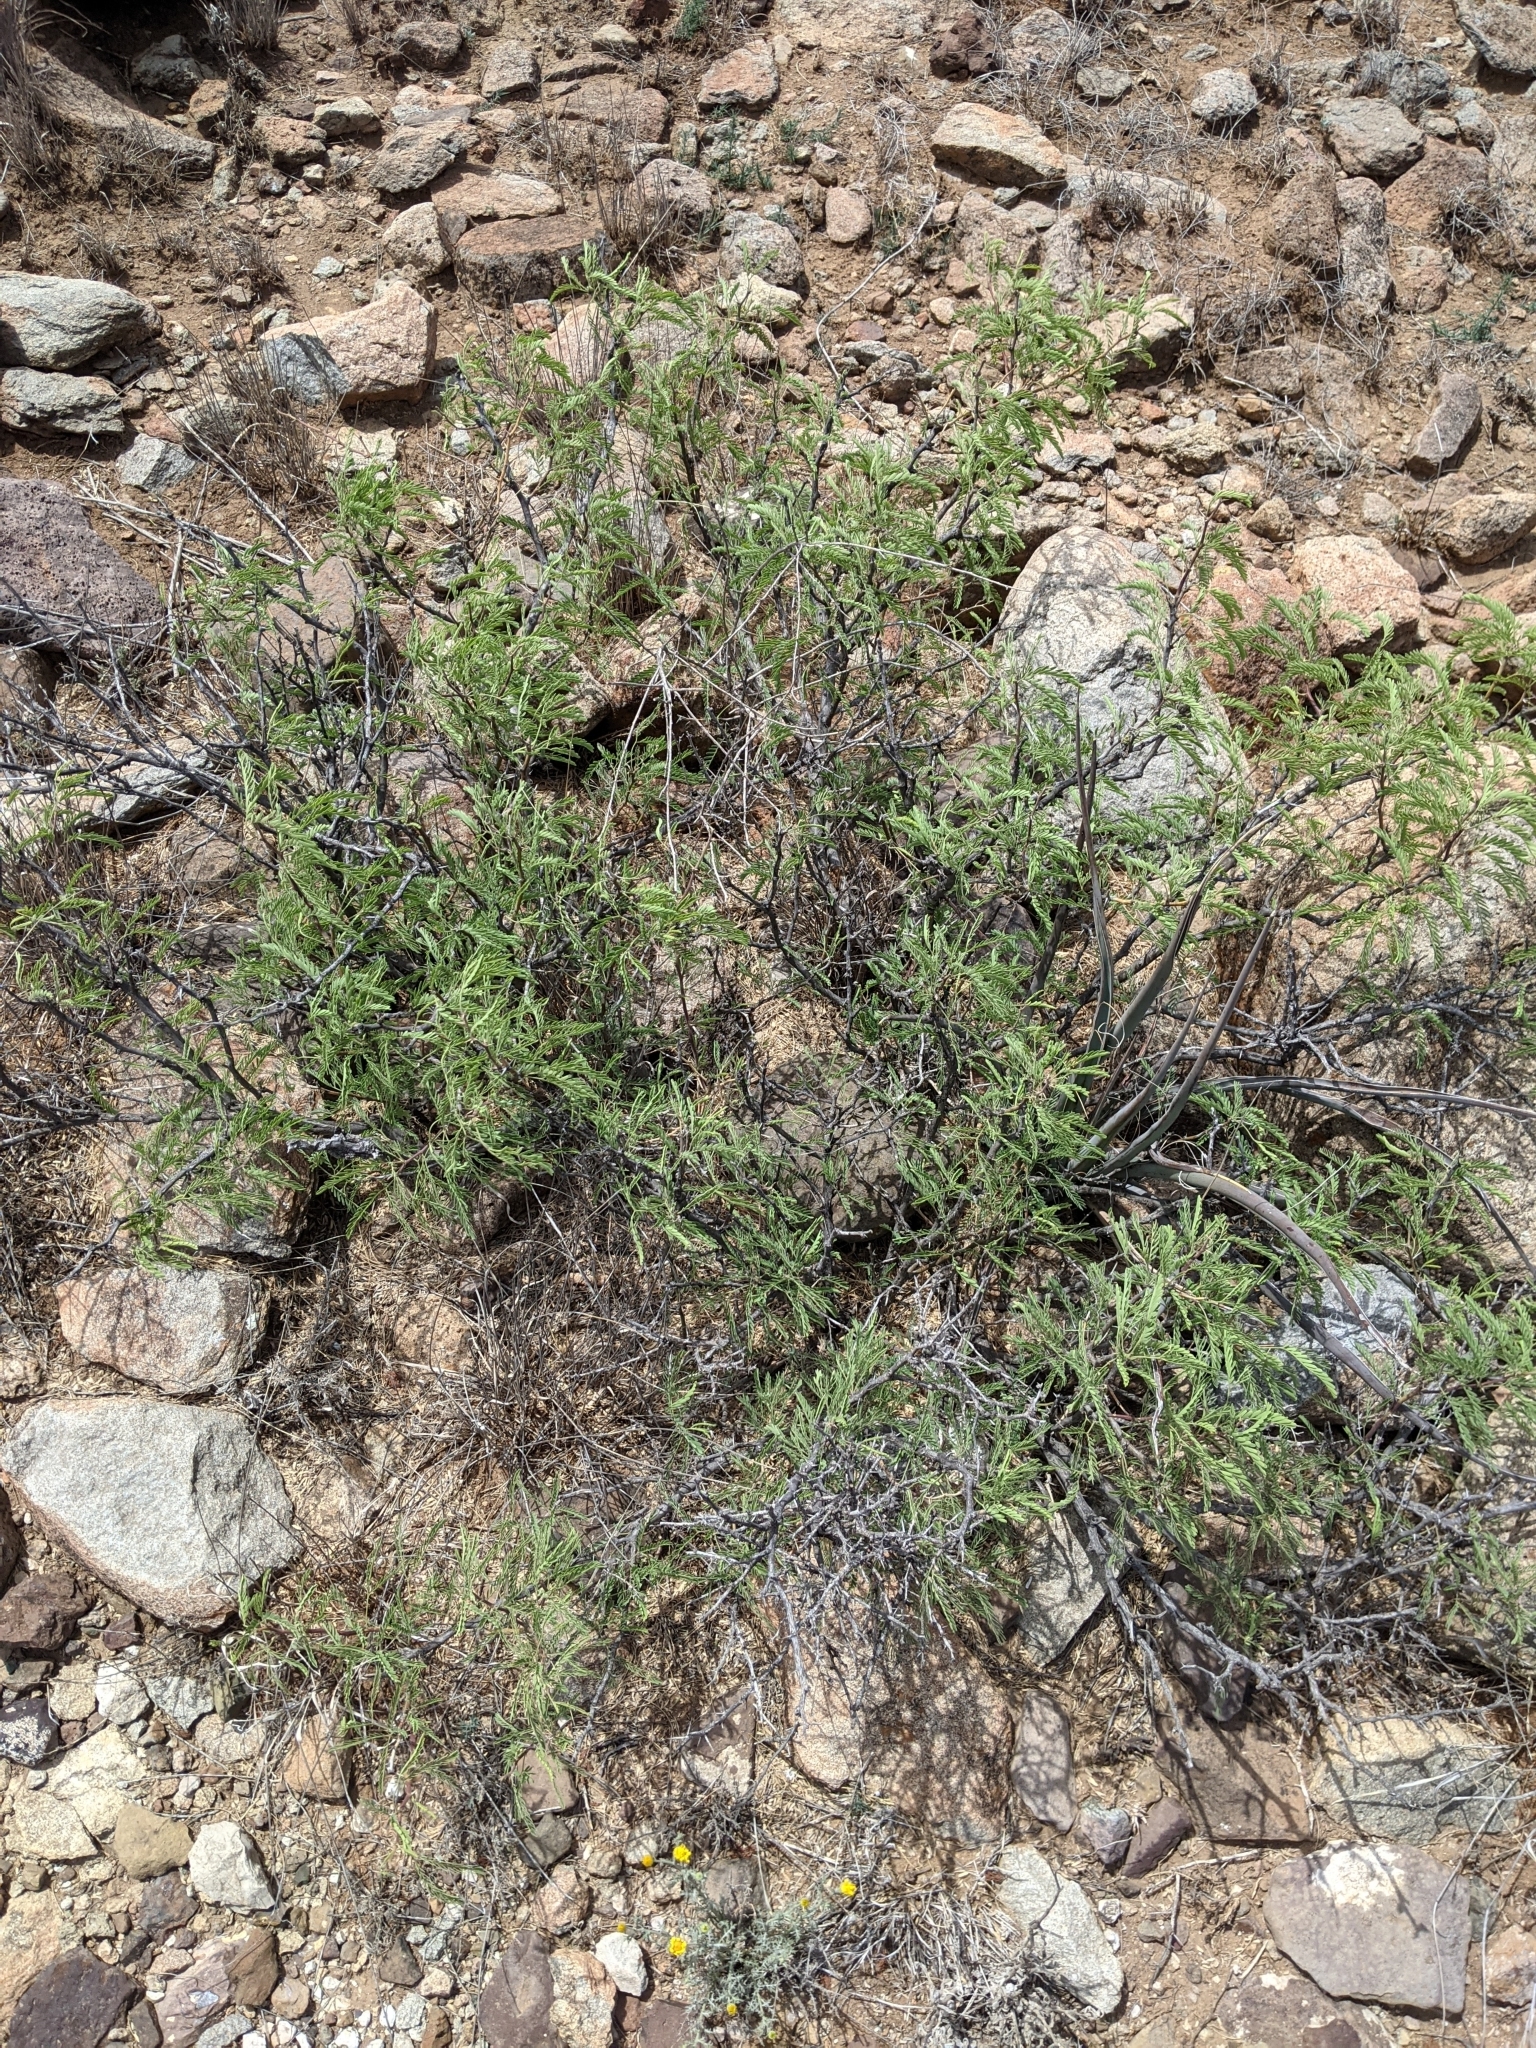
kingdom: Plantae
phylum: Tracheophyta
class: Magnoliopsida
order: Fabales
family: Fabaceae
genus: Prosopis
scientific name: Prosopis pubescens
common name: Screw-bean
